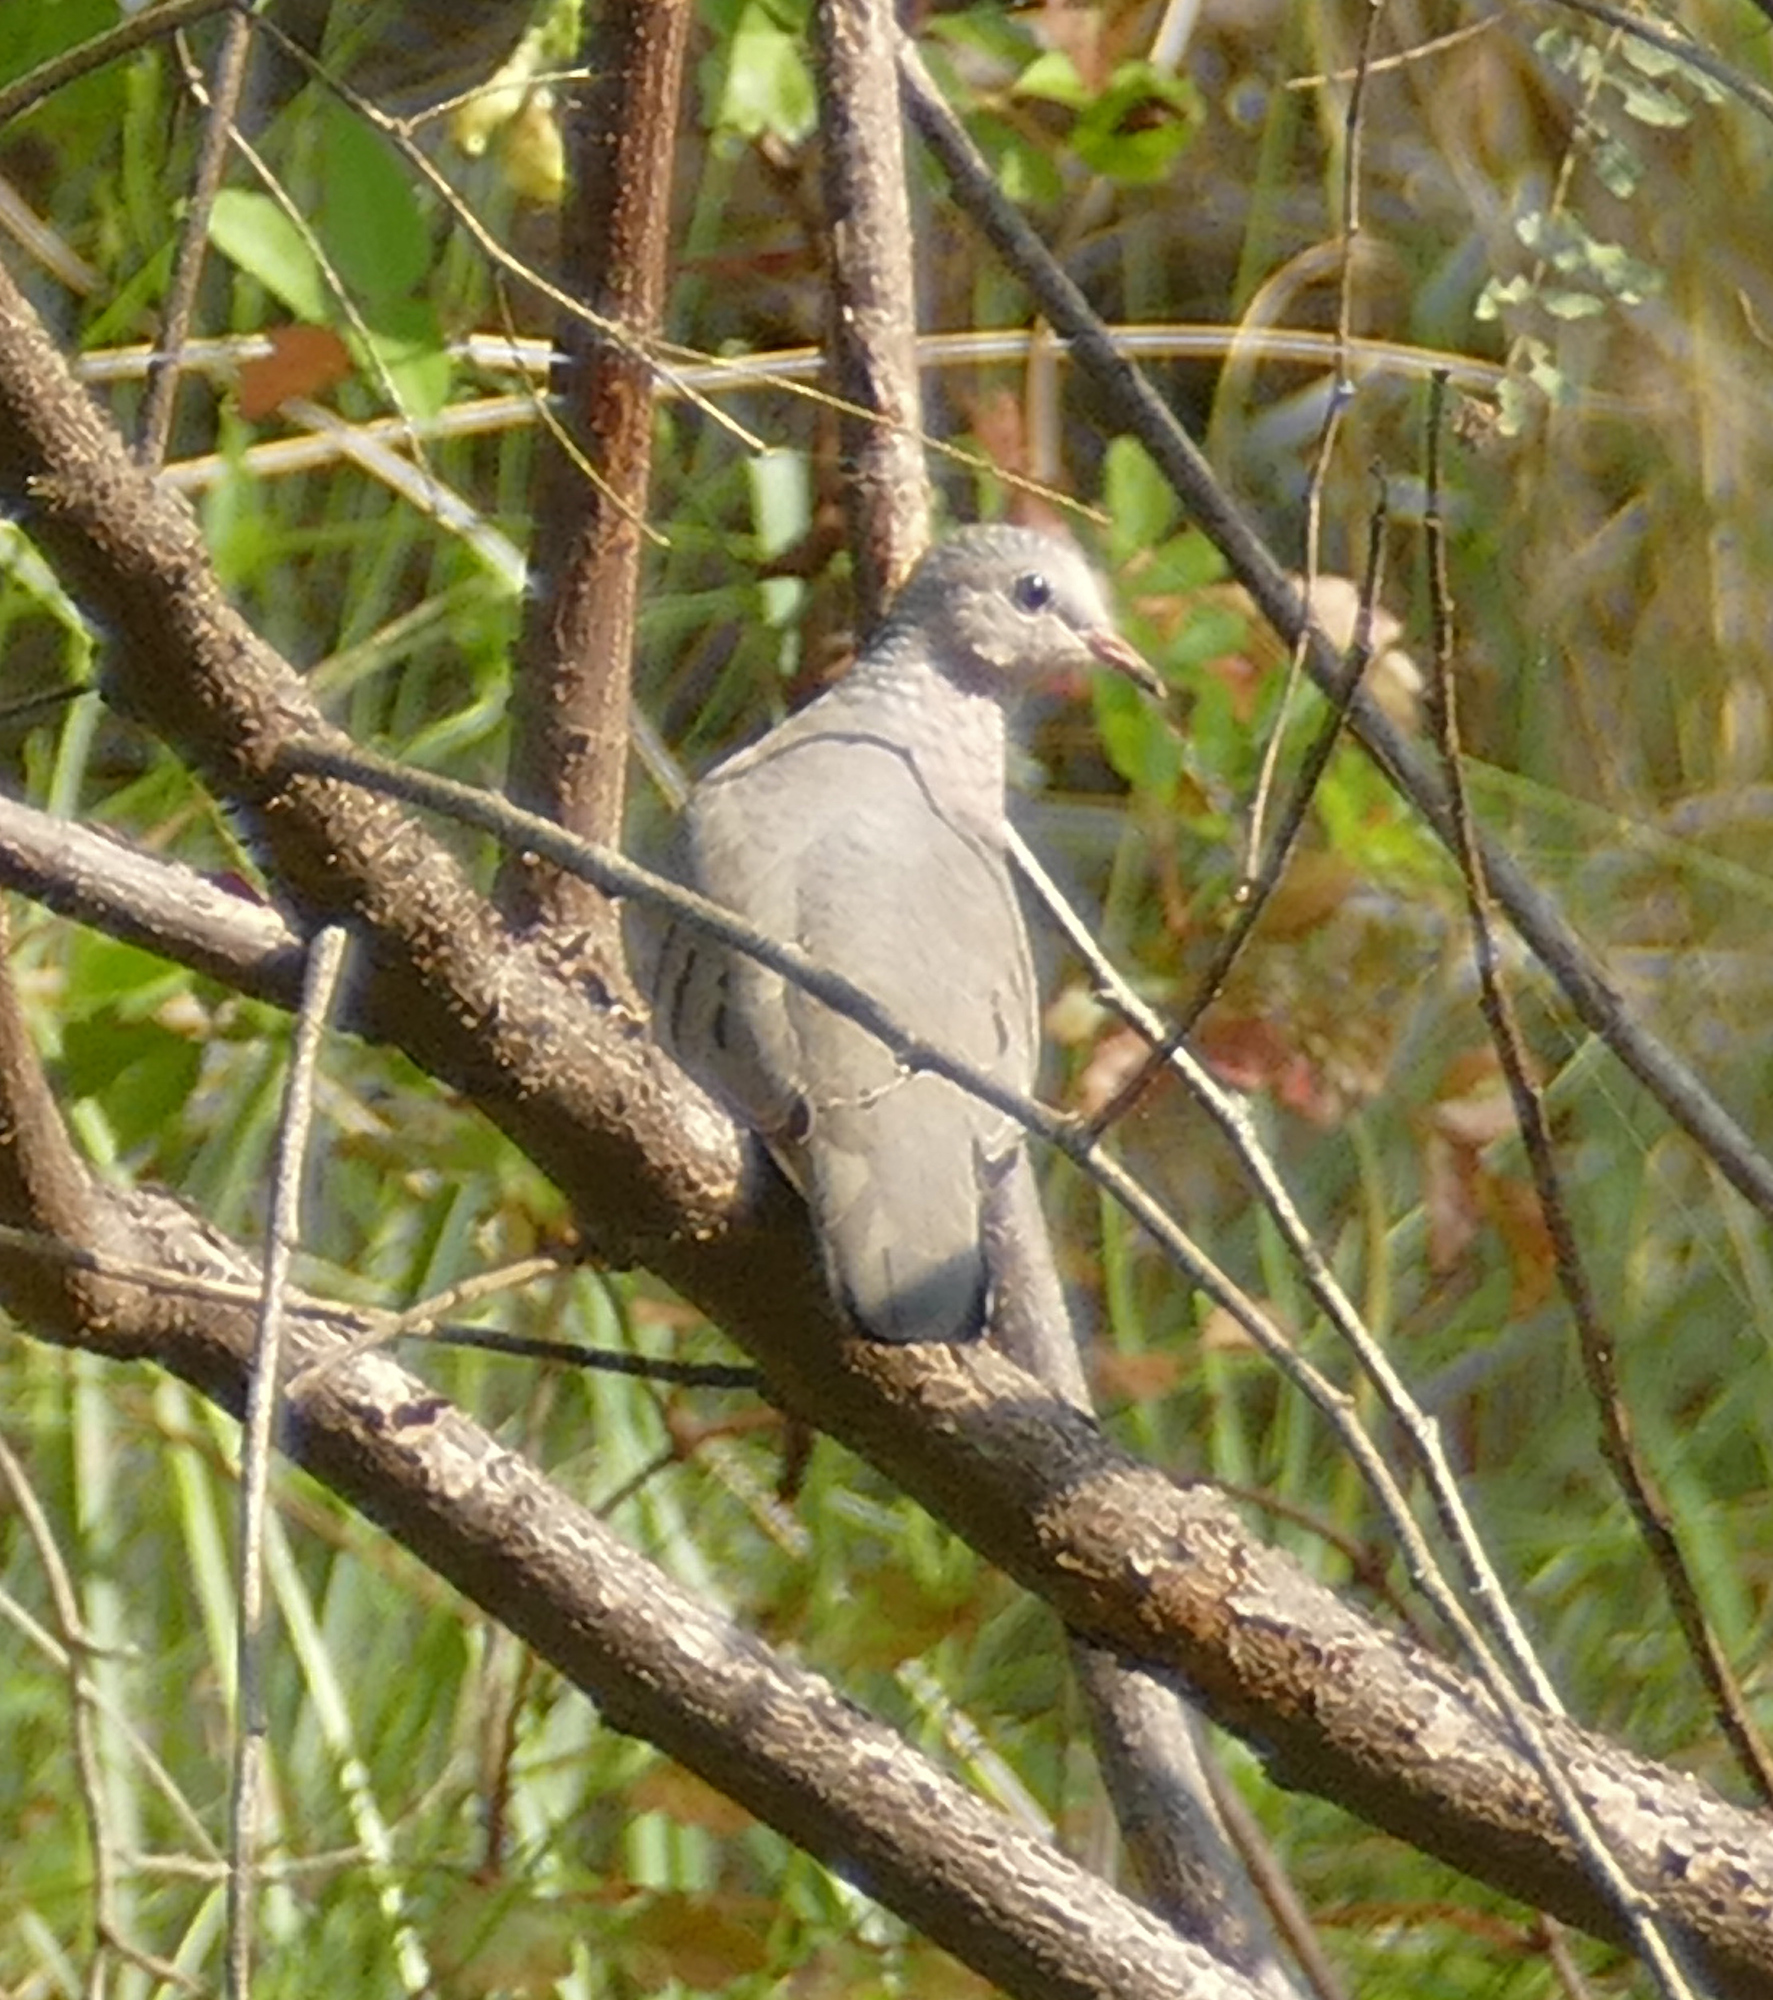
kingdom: Animalia
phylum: Chordata
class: Aves
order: Columbiformes
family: Columbidae
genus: Columbina
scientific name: Columbina passerina
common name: Common ground-dove
